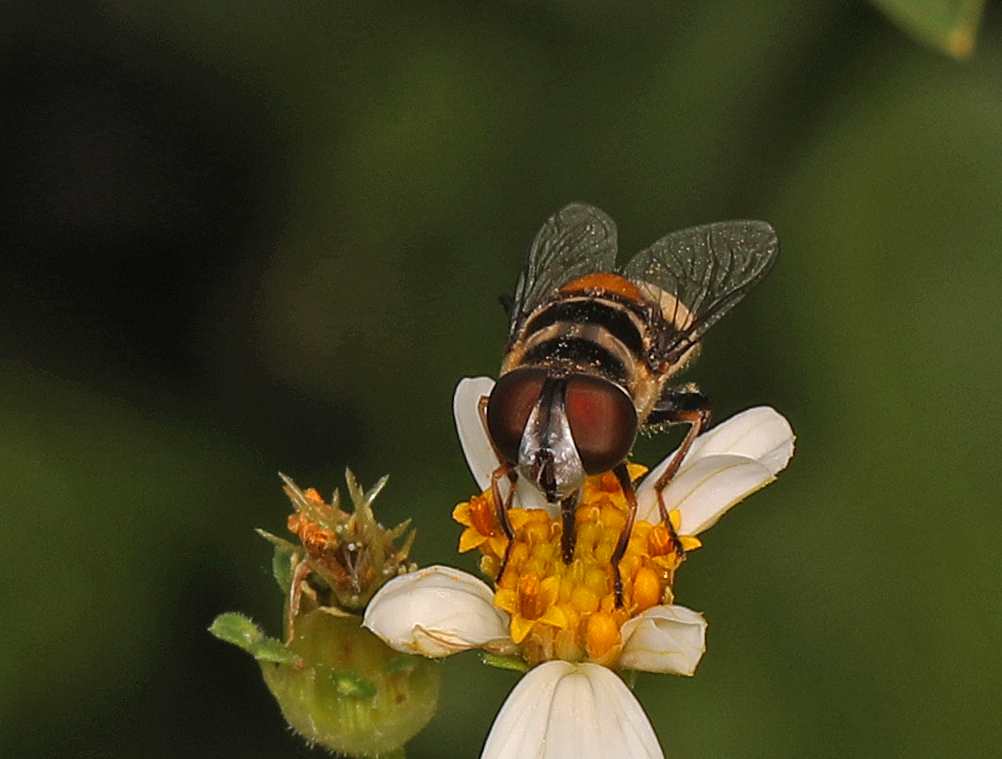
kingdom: Animalia
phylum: Arthropoda
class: Insecta
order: Diptera
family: Syrphidae
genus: Palpada
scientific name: Palpada albifrons
